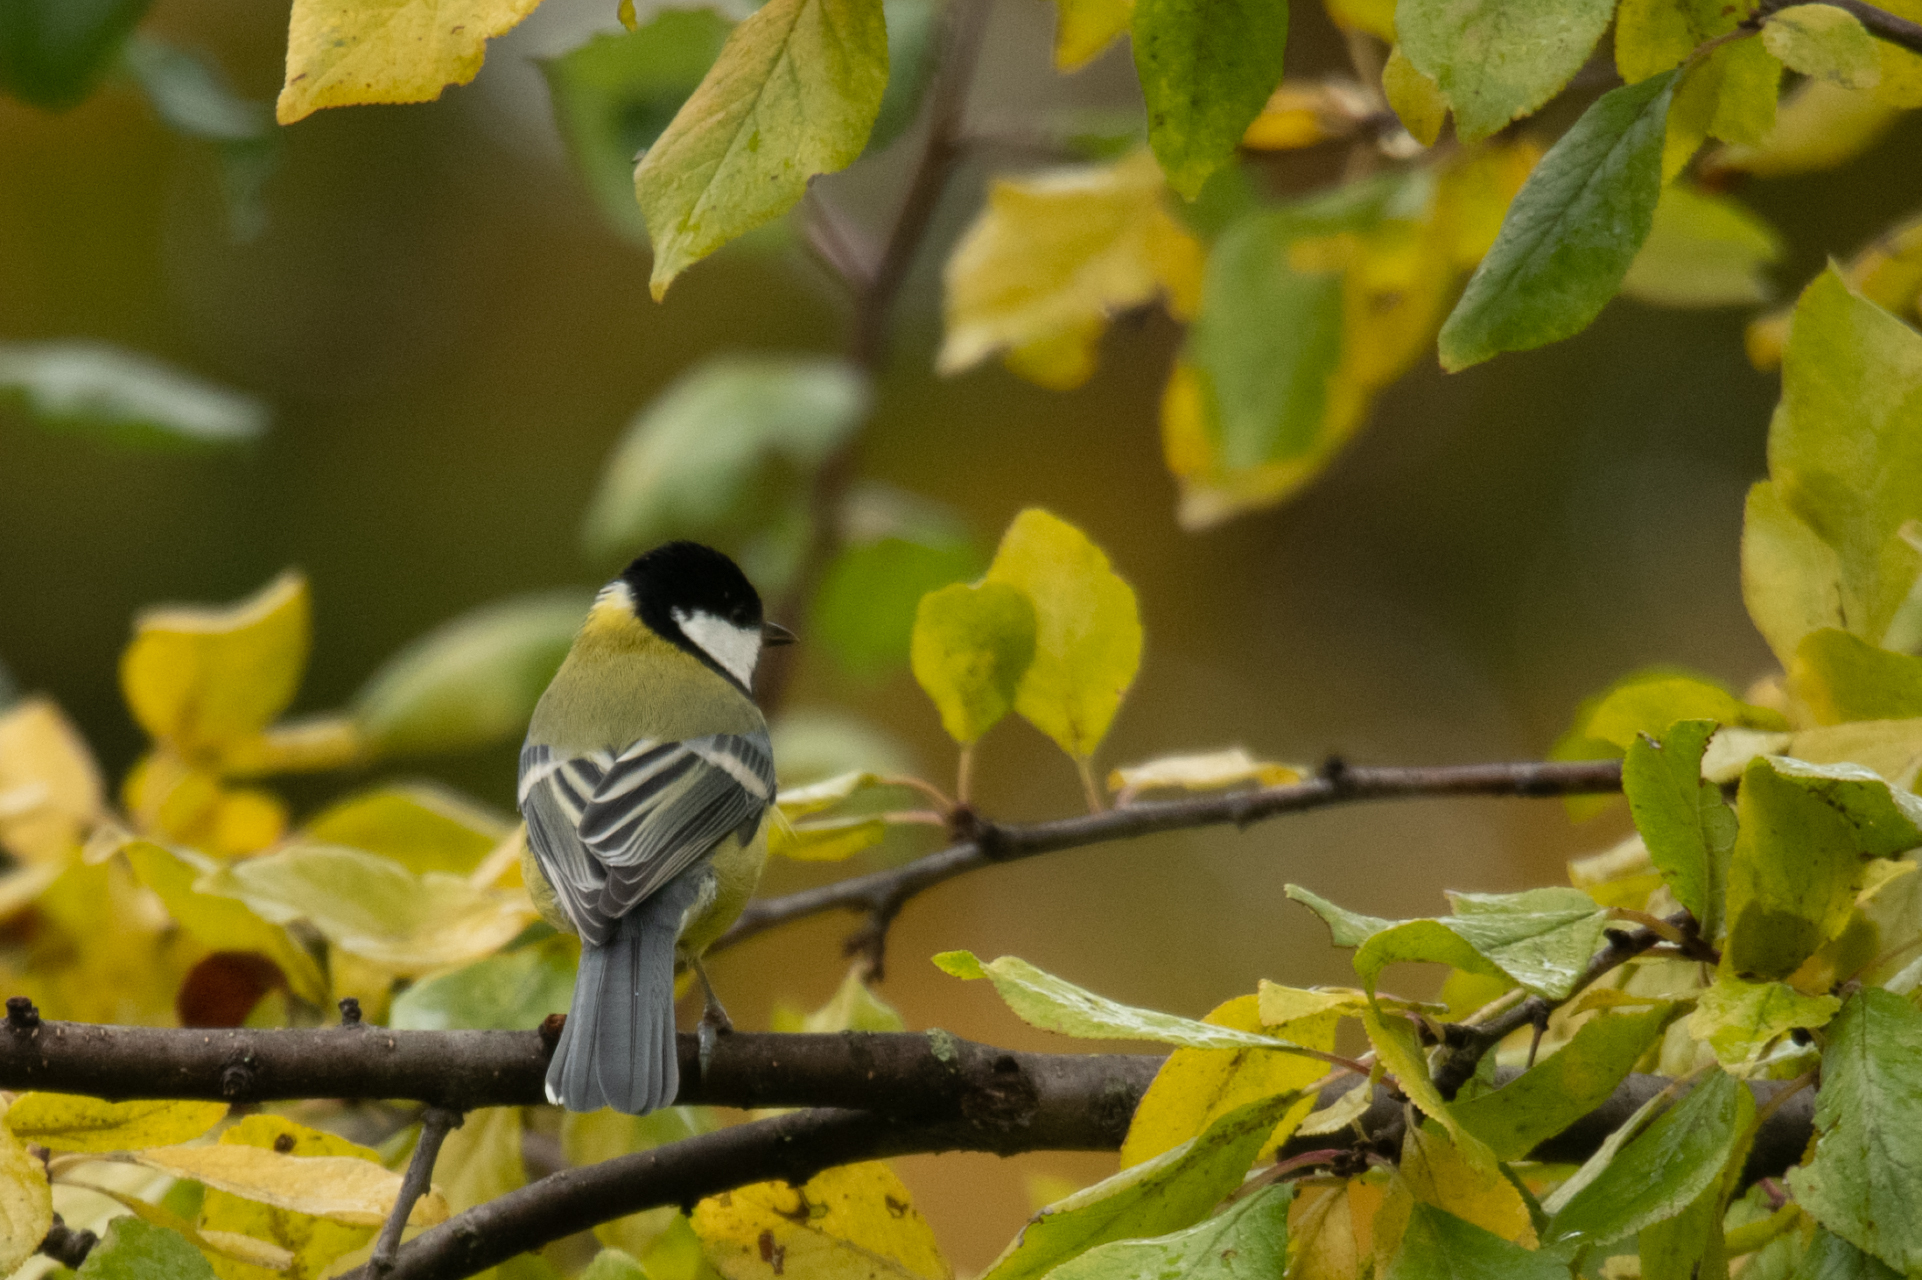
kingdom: Animalia
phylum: Chordata
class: Aves
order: Passeriformes
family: Paridae
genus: Parus
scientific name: Parus major
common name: Great tit
